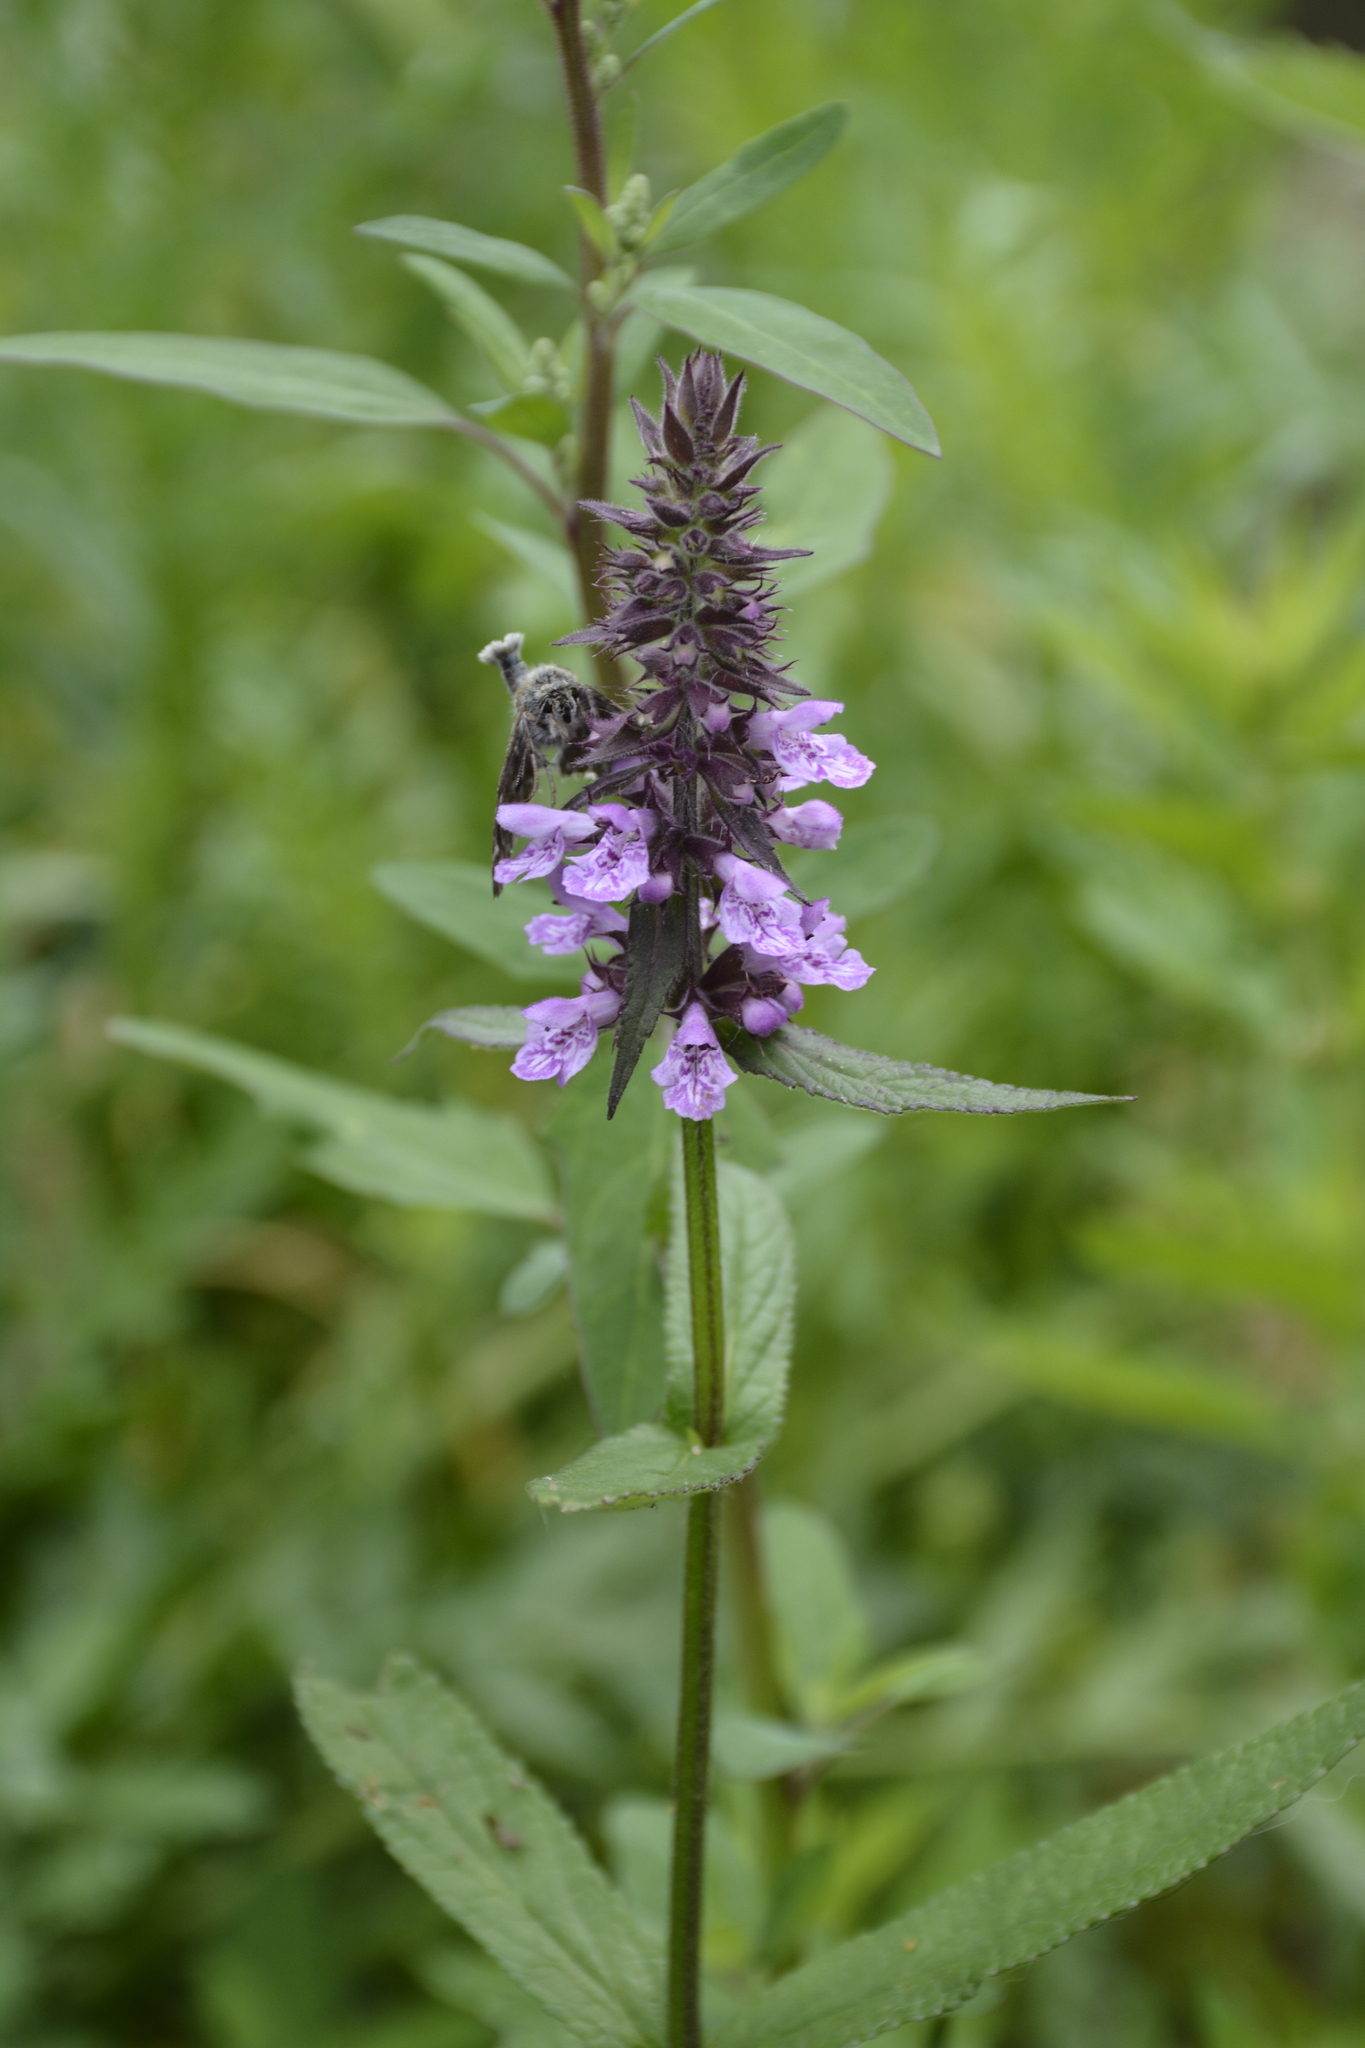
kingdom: Plantae
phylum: Tracheophyta
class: Magnoliopsida
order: Lamiales
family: Lamiaceae
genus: Stachys
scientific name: Stachys palustris
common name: Marsh woundwort
